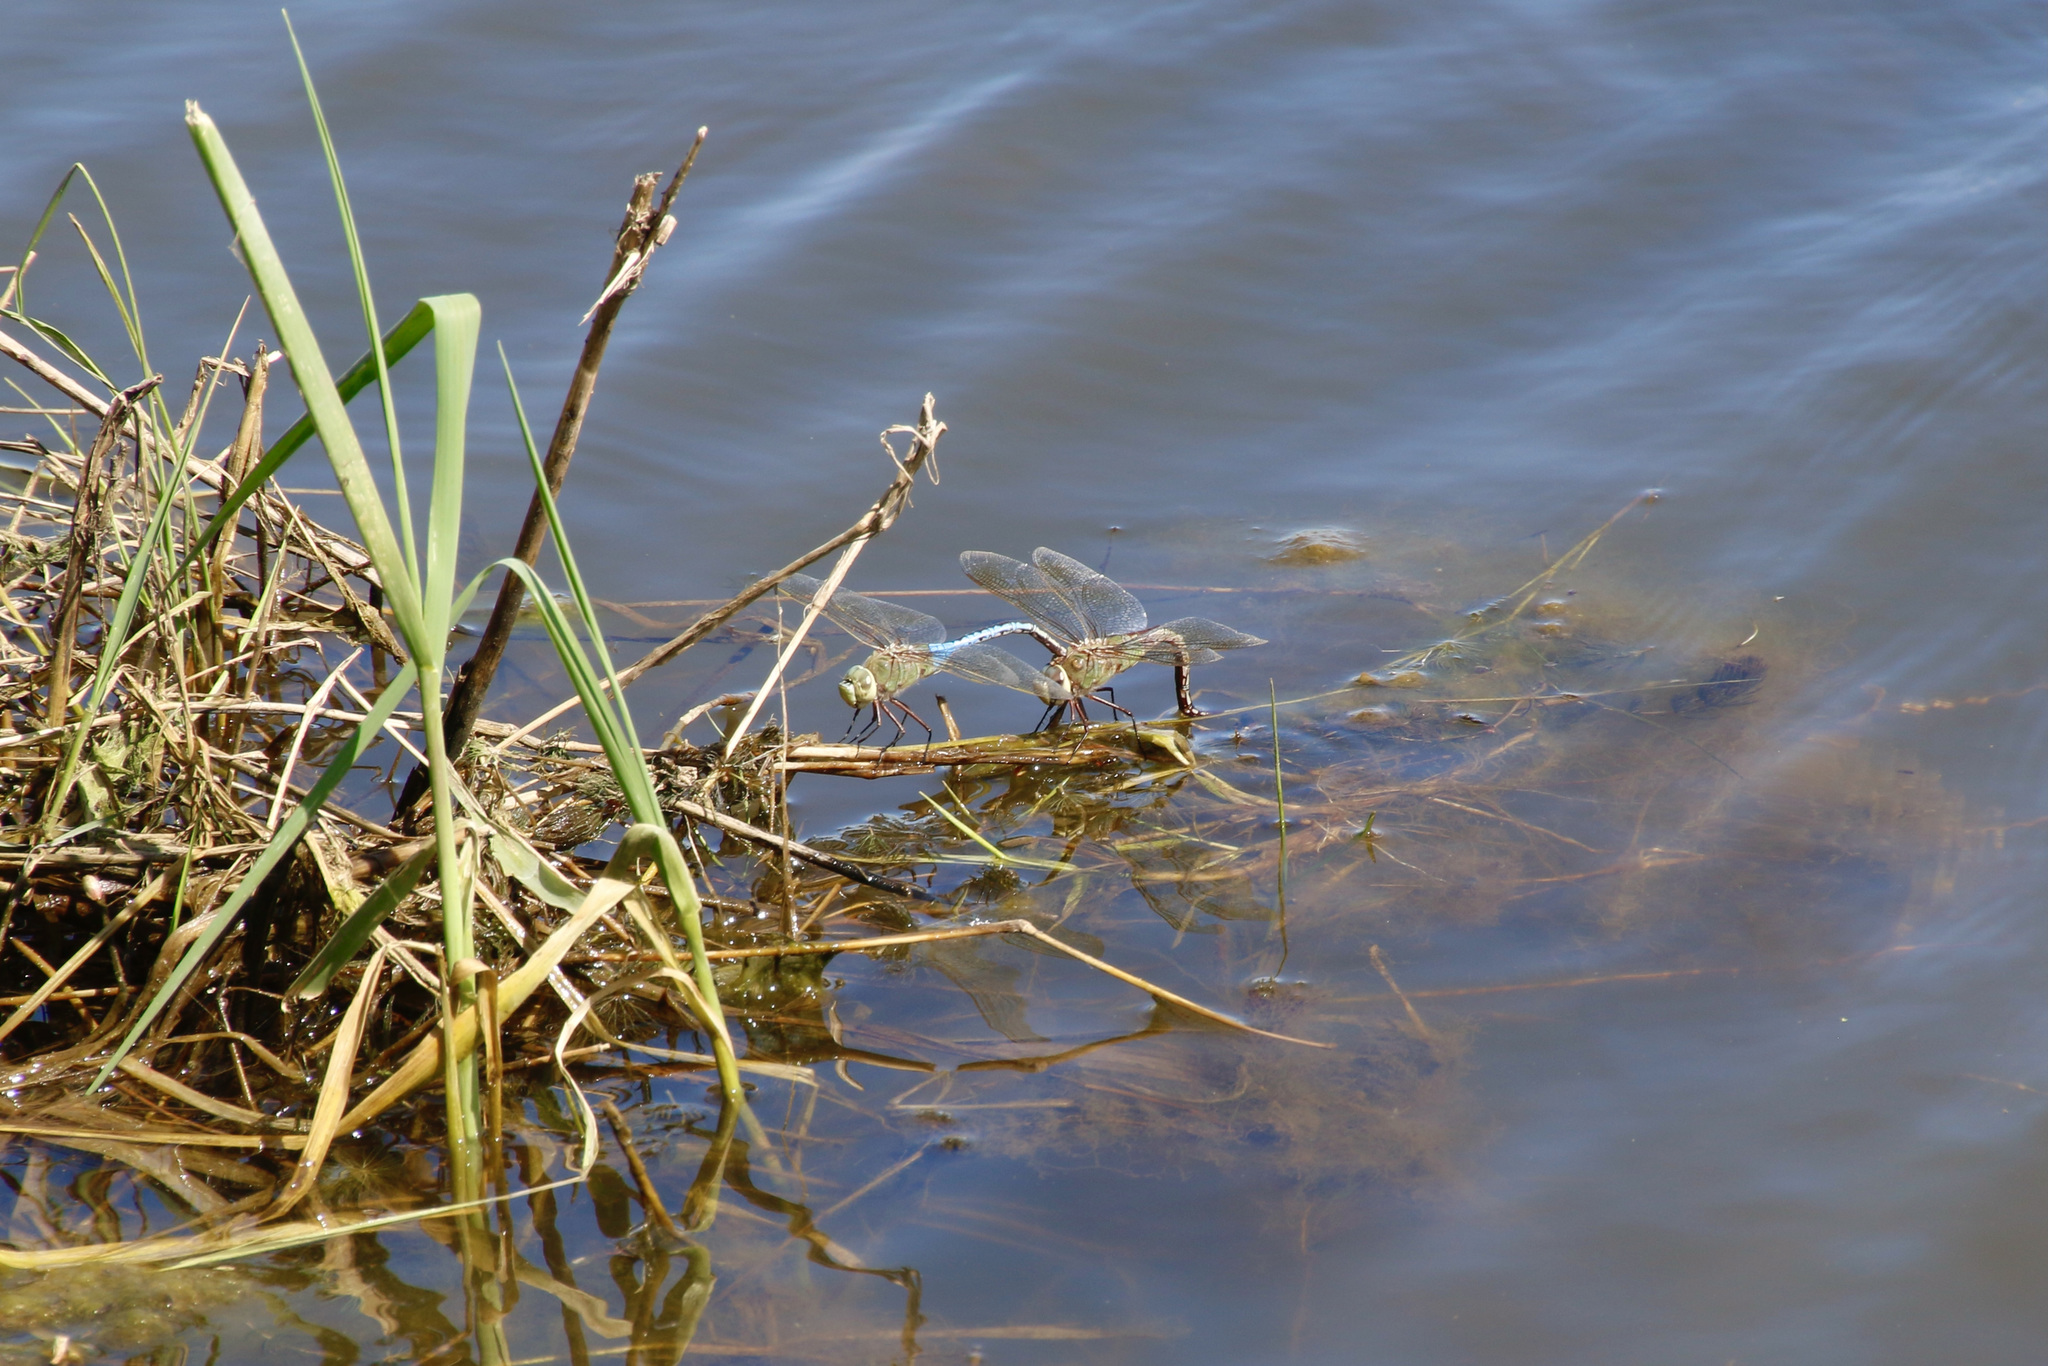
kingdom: Animalia
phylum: Arthropoda
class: Insecta
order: Odonata
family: Aeshnidae
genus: Anax
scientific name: Anax junius
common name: Common green darner
